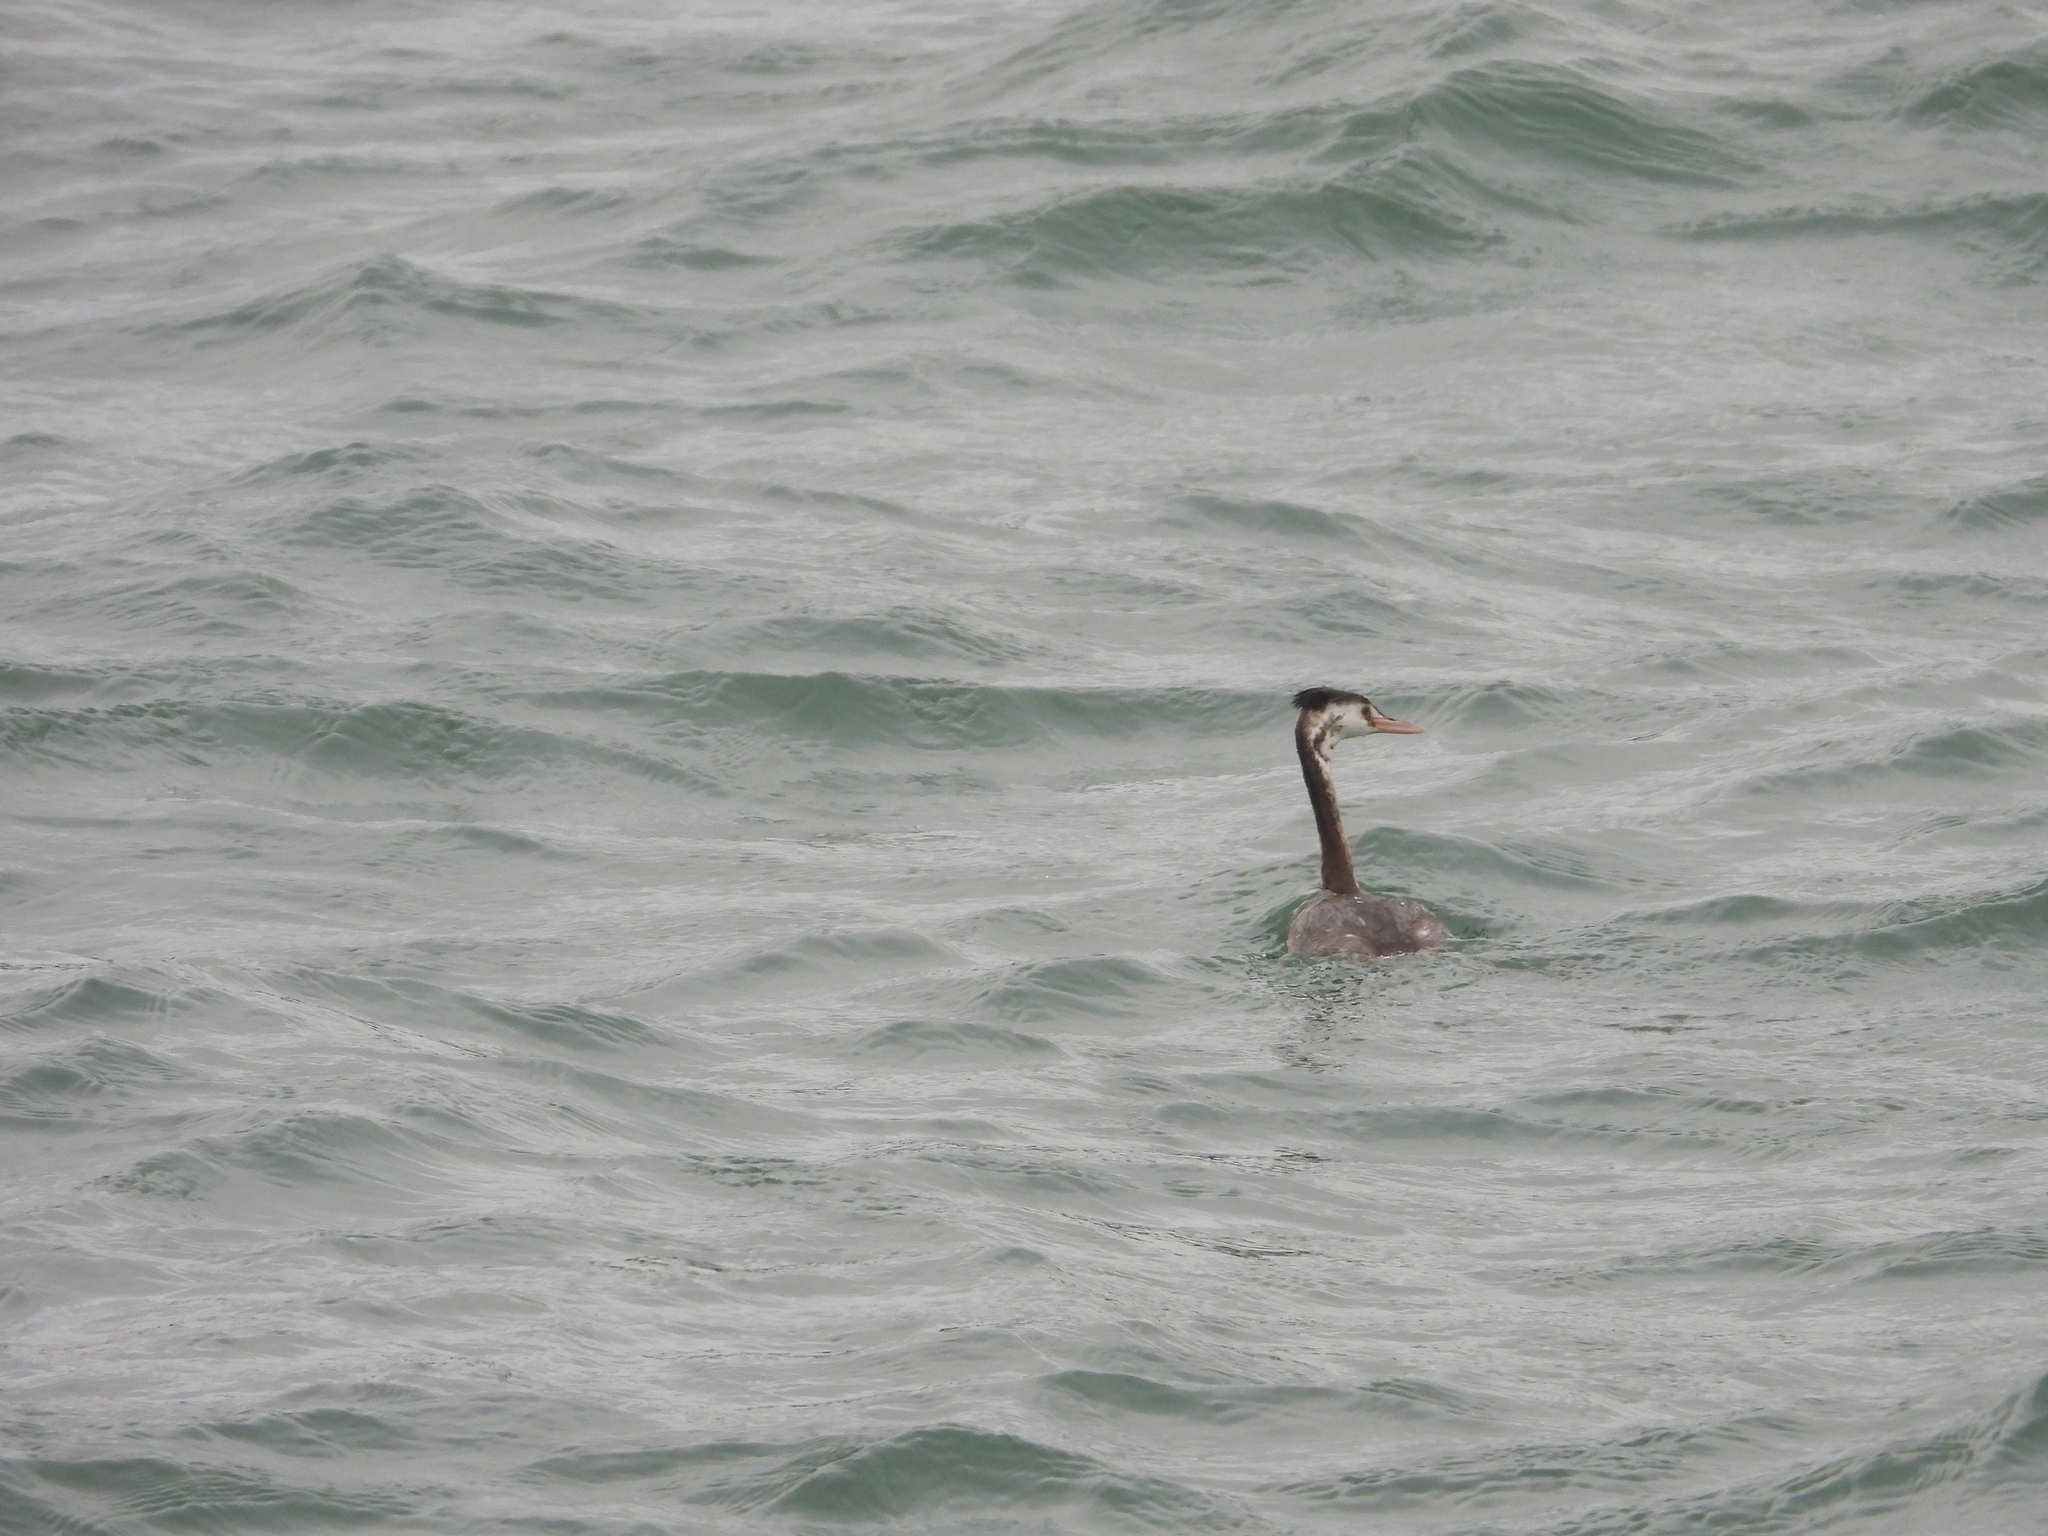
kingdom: Animalia
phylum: Chordata
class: Aves
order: Podicipediformes
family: Podicipedidae
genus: Podiceps
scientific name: Podiceps cristatus
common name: Great crested grebe
